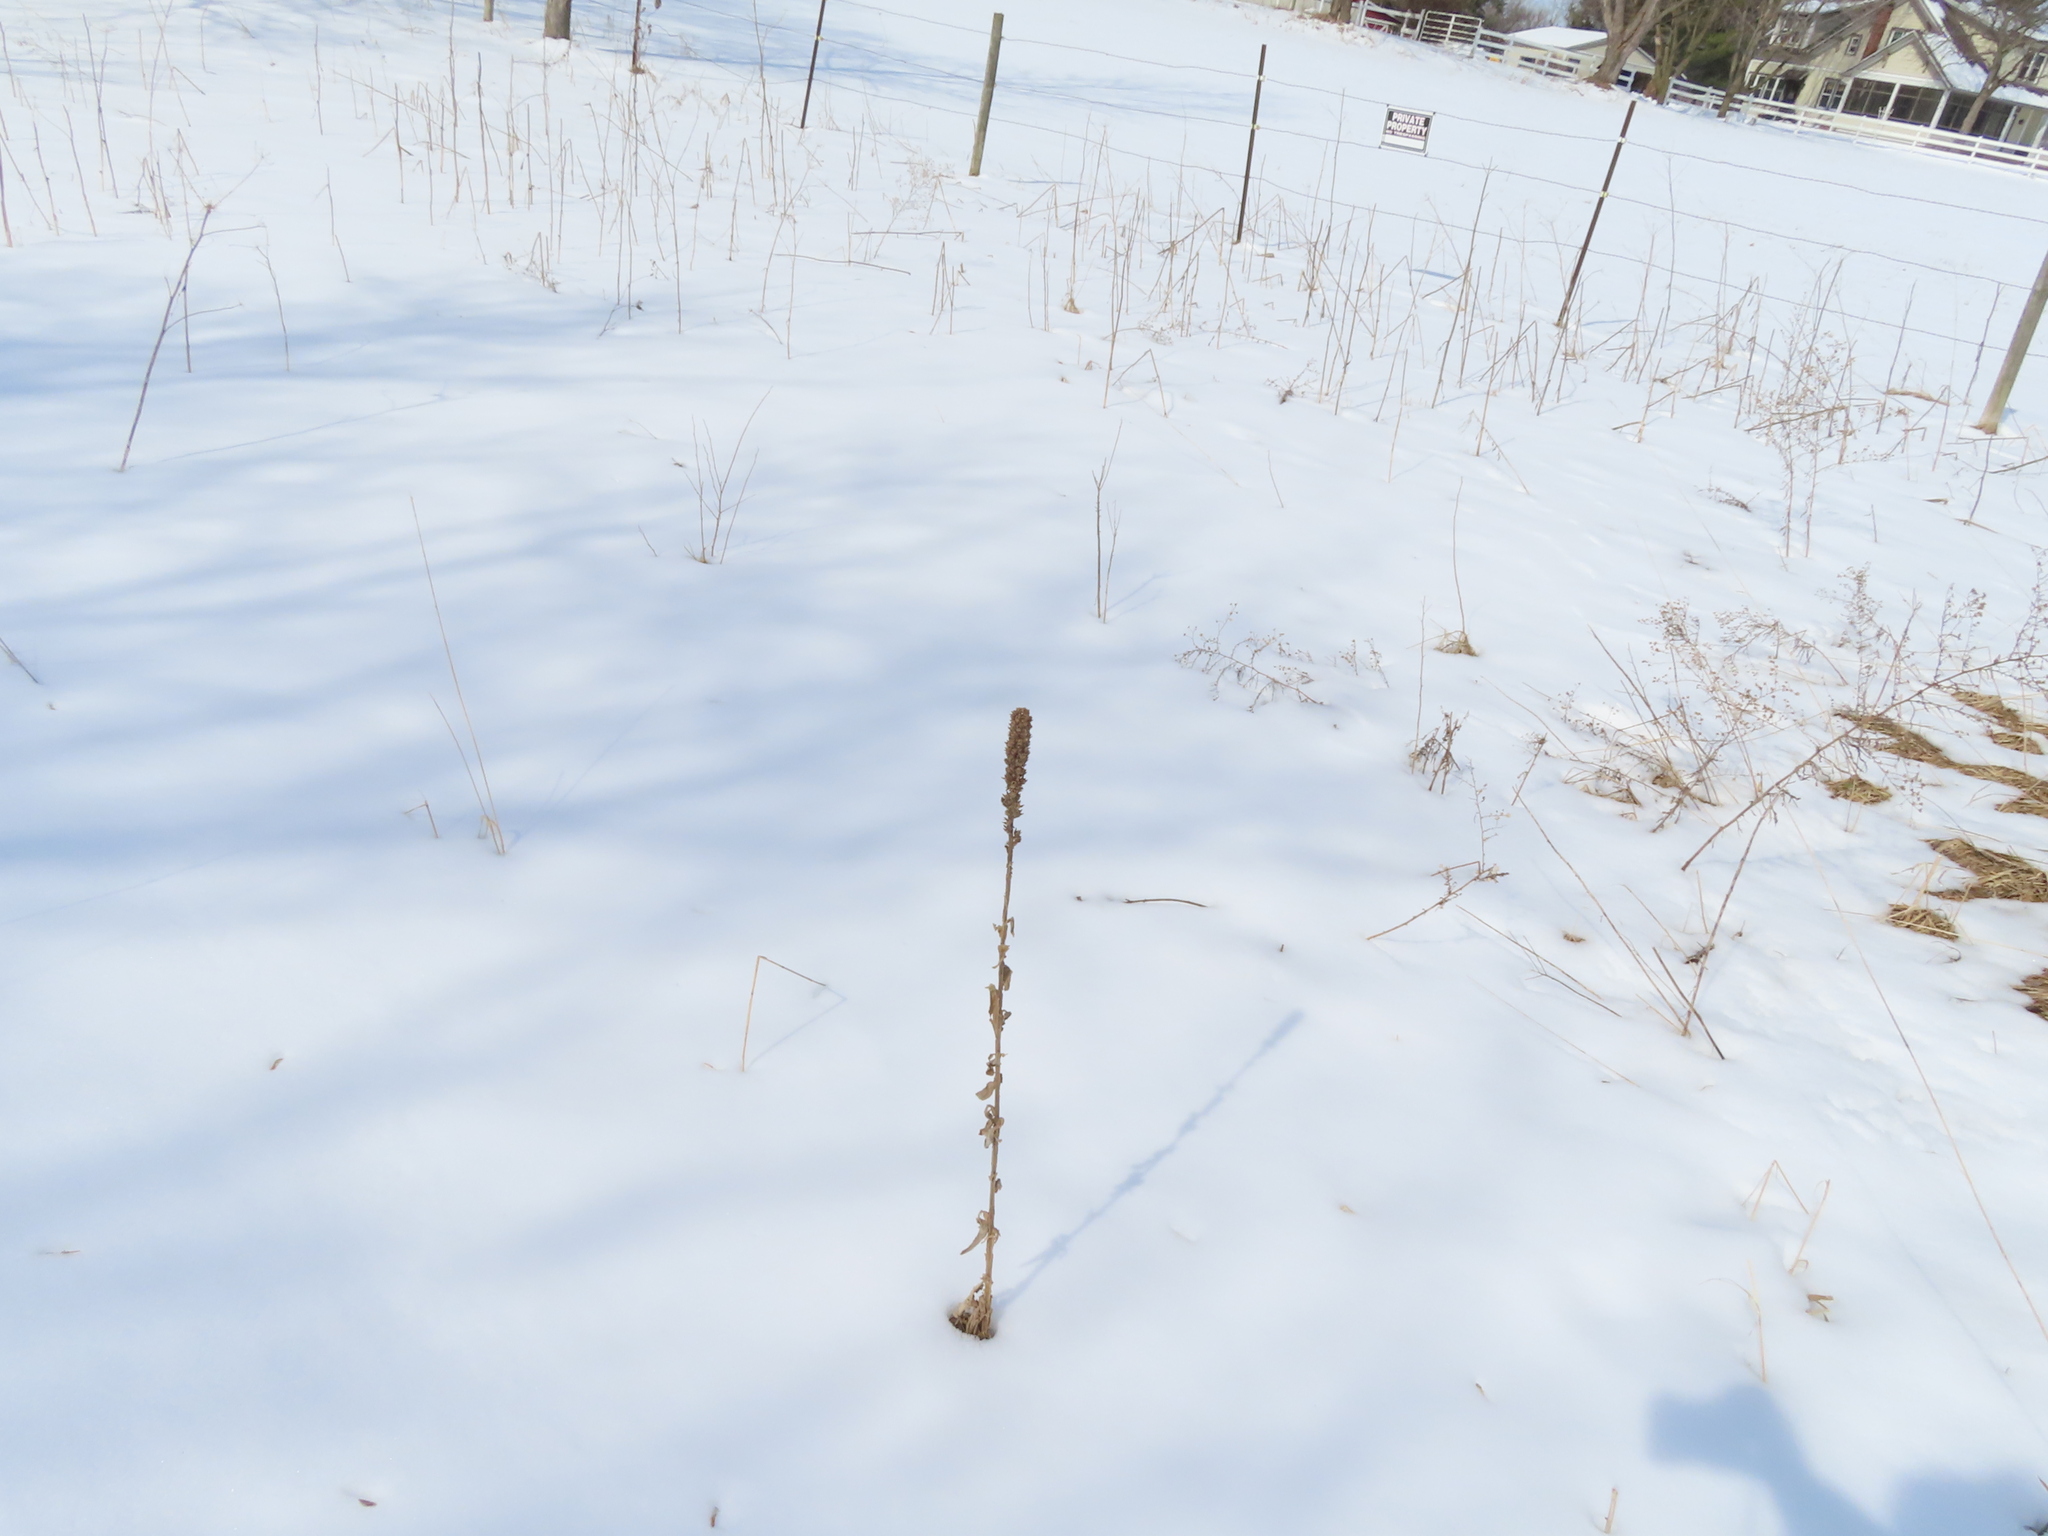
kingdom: Plantae
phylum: Tracheophyta
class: Magnoliopsida
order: Lamiales
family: Scrophulariaceae
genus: Verbascum
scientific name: Verbascum thapsus
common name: Common mullein
